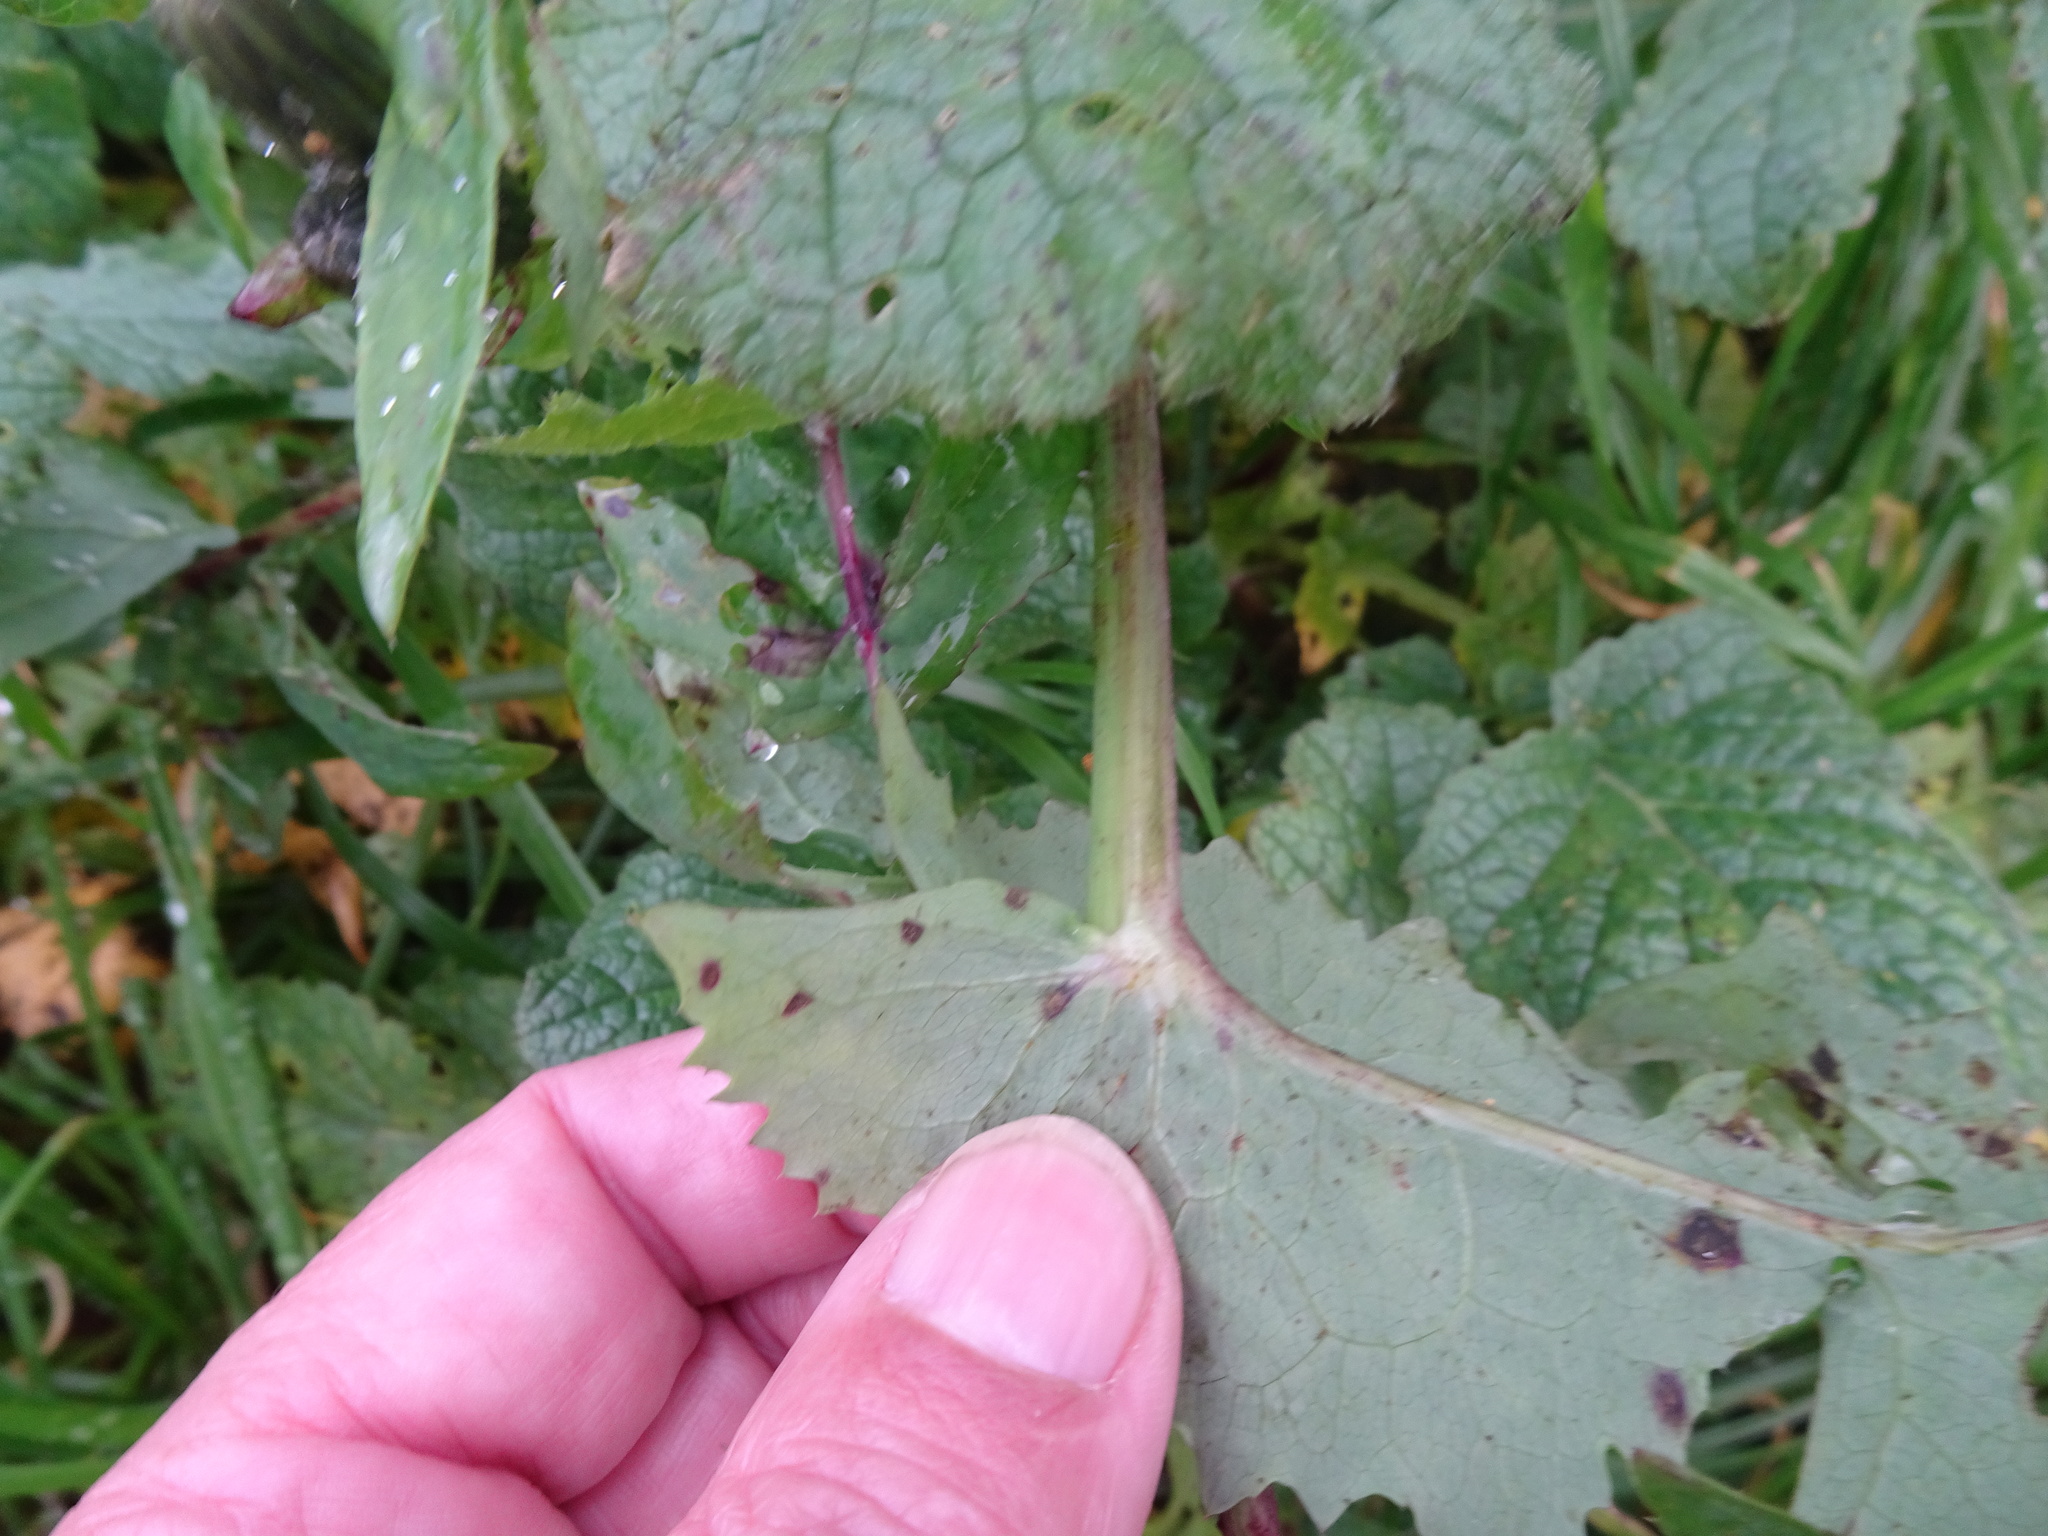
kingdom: Plantae
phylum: Tracheophyta
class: Magnoliopsida
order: Asterales
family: Asteraceae
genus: Sonchus
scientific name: Sonchus oleraceus
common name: Common sowthistle
